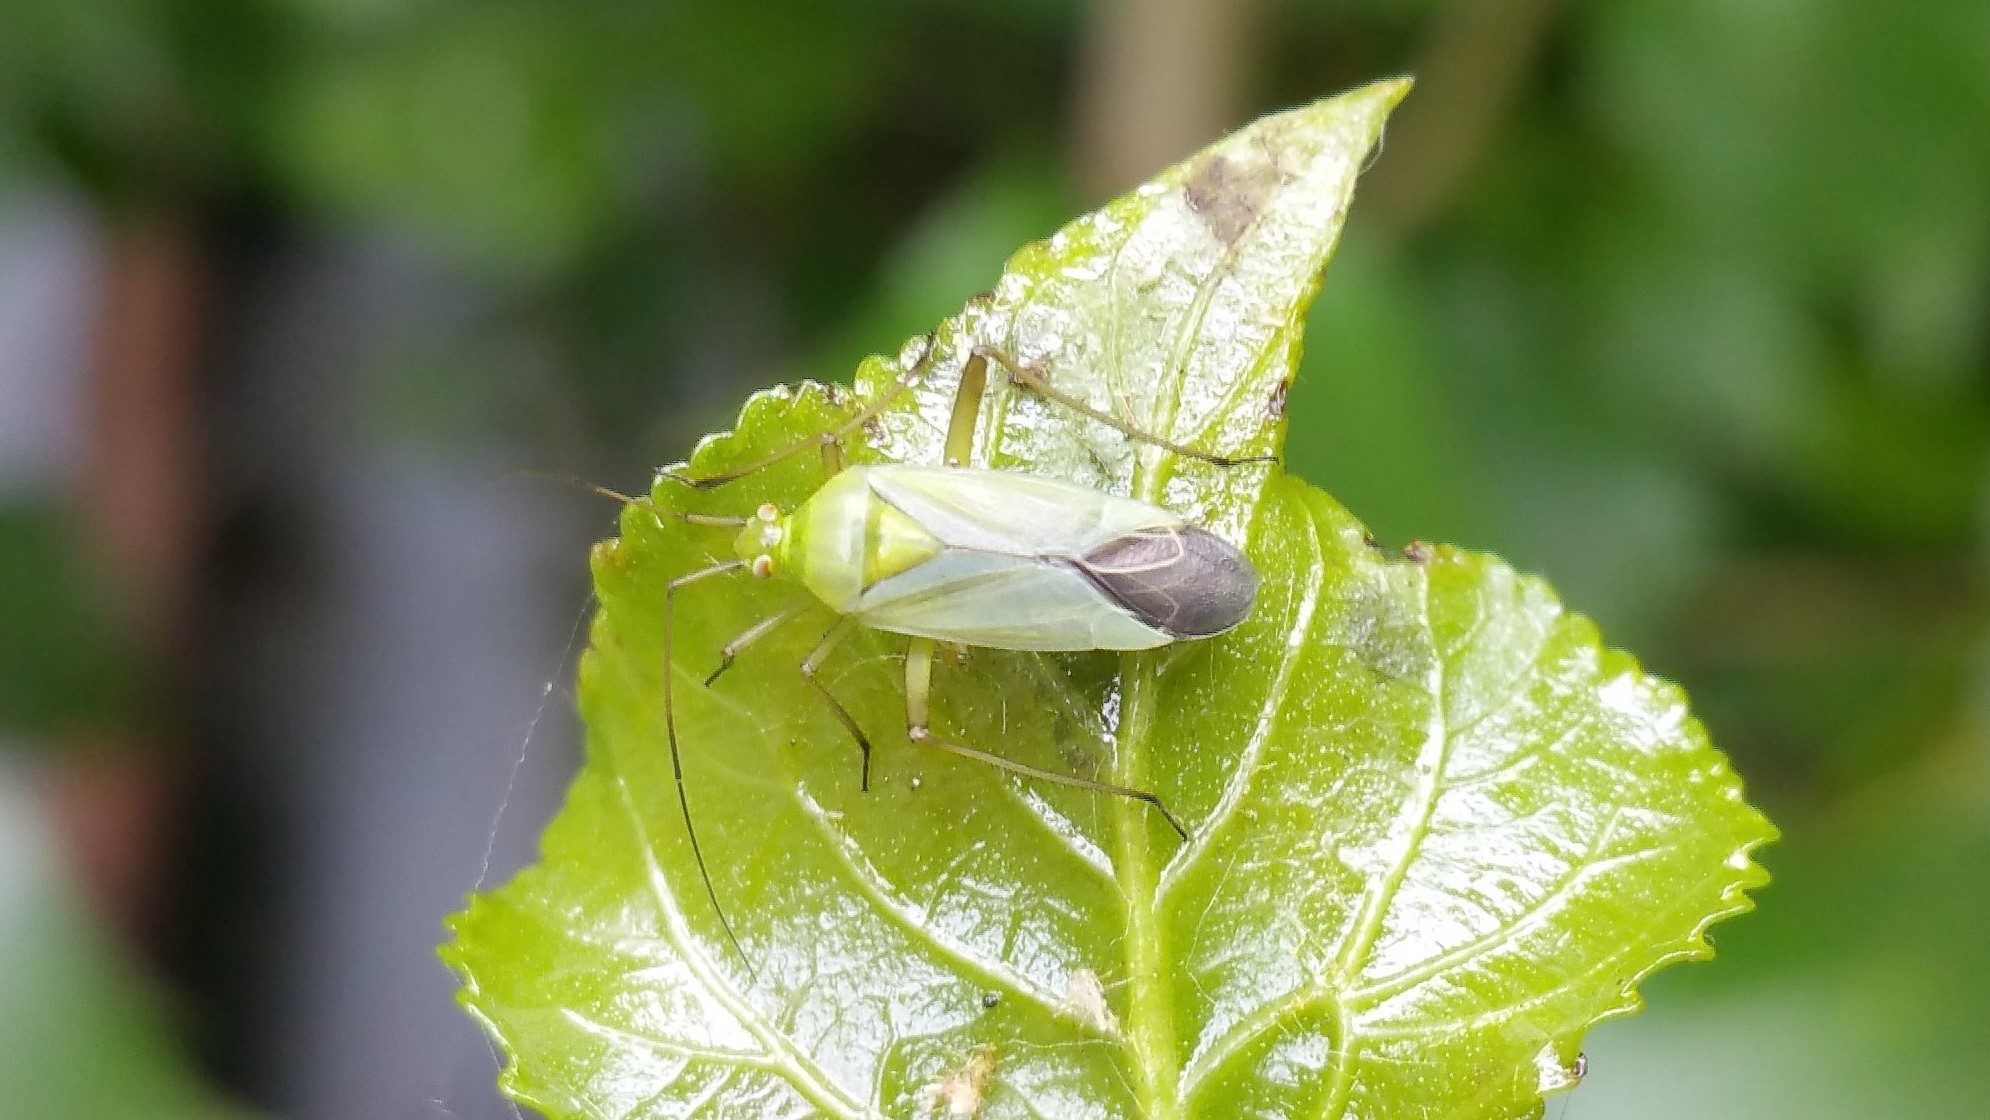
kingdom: Animalia
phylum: Arthropoda
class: Insecta
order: Hemiptera
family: Miridae
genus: Calocoris
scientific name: Calocoris affinis
